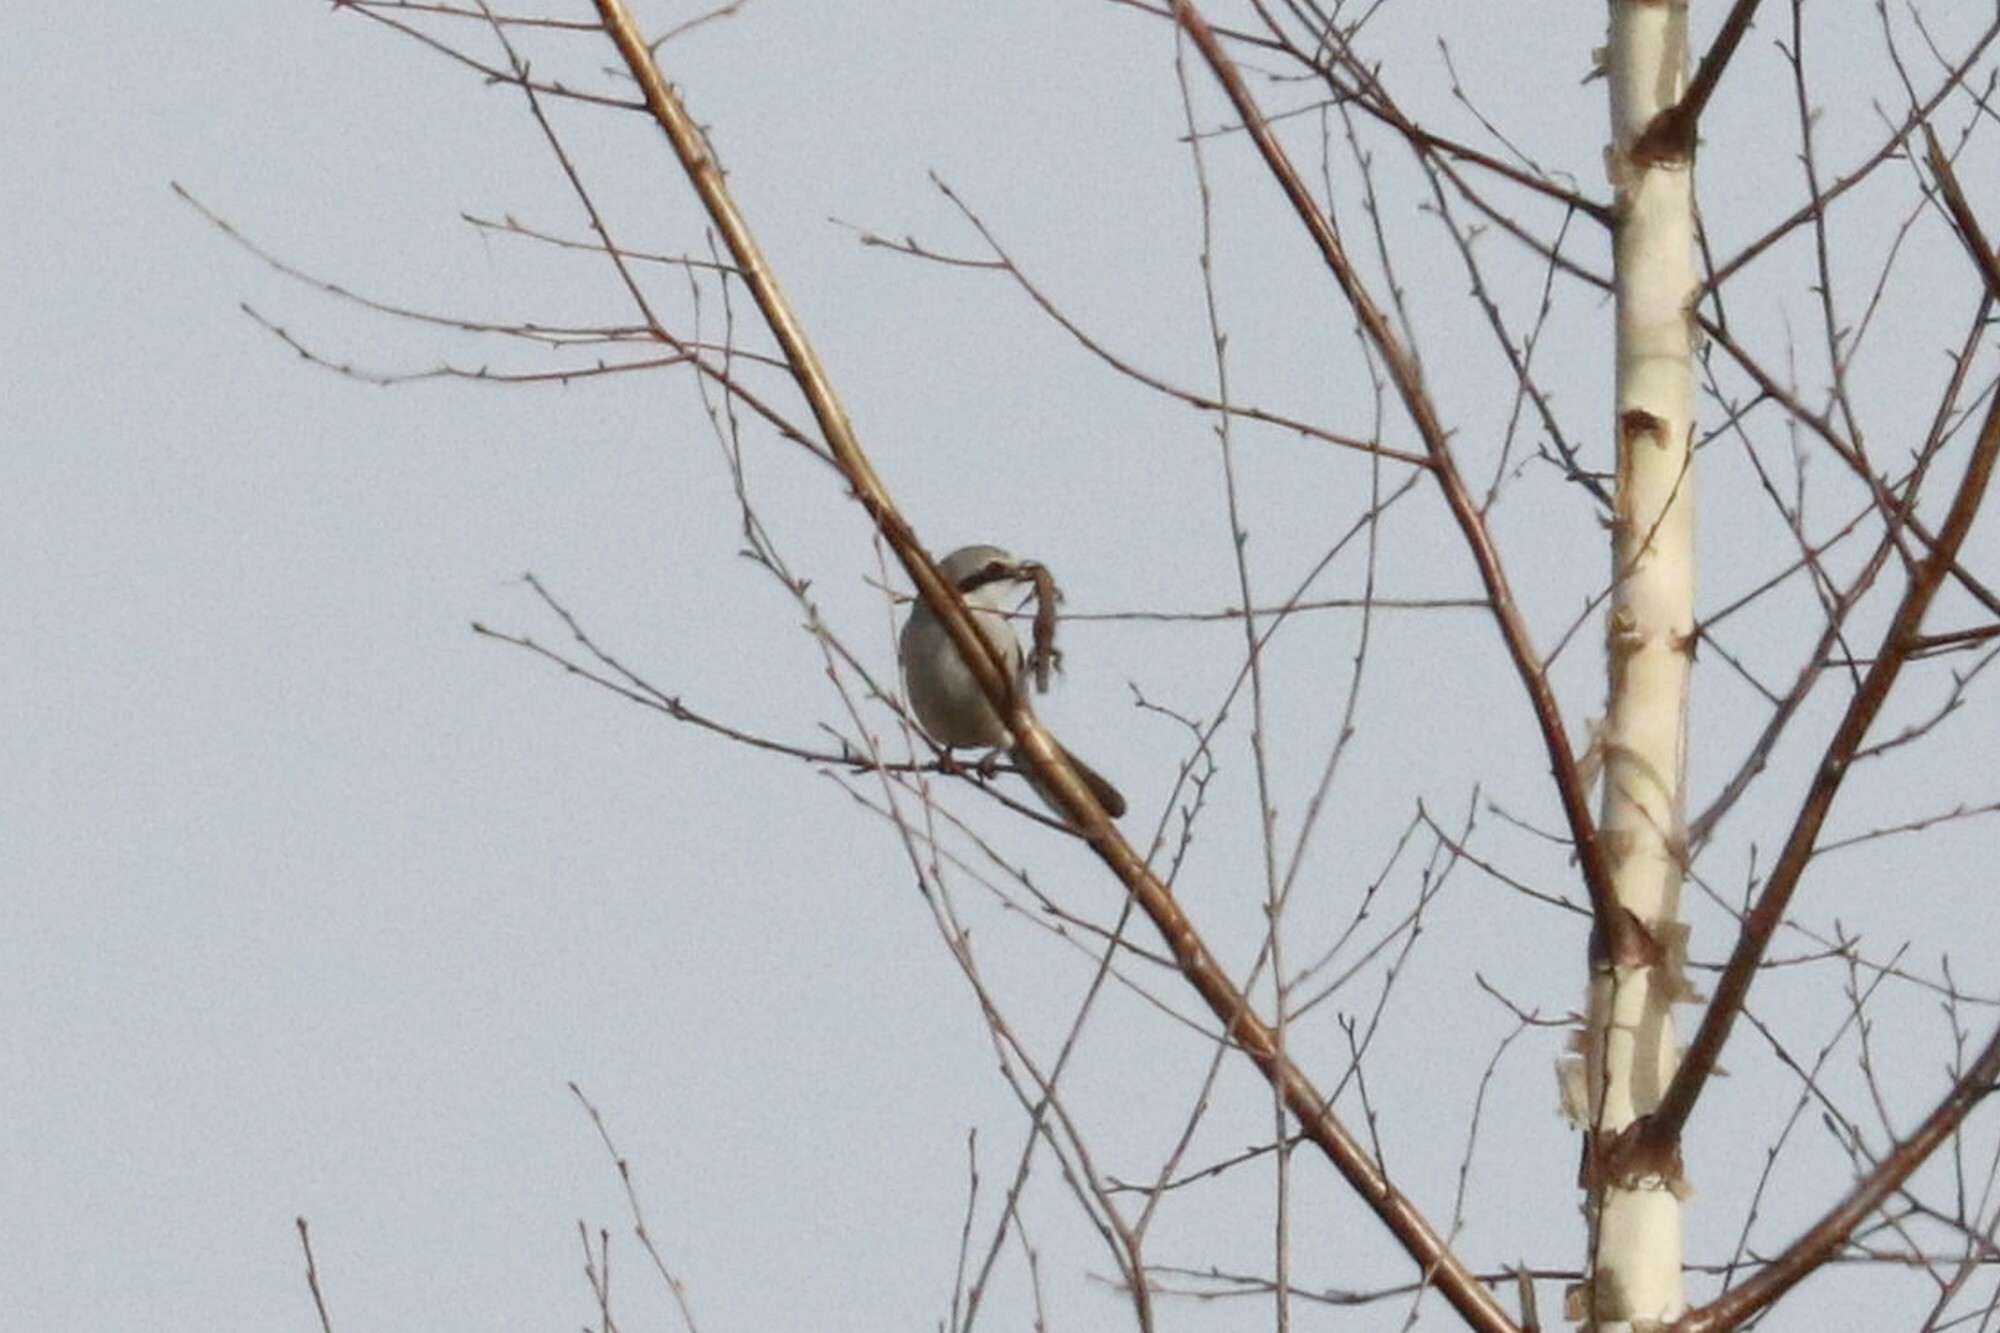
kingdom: Animalia
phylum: Chordata
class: Aves
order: Passeriformes
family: Laniidae
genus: Lanius
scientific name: Lanius excubitor
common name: Great grey shrike
